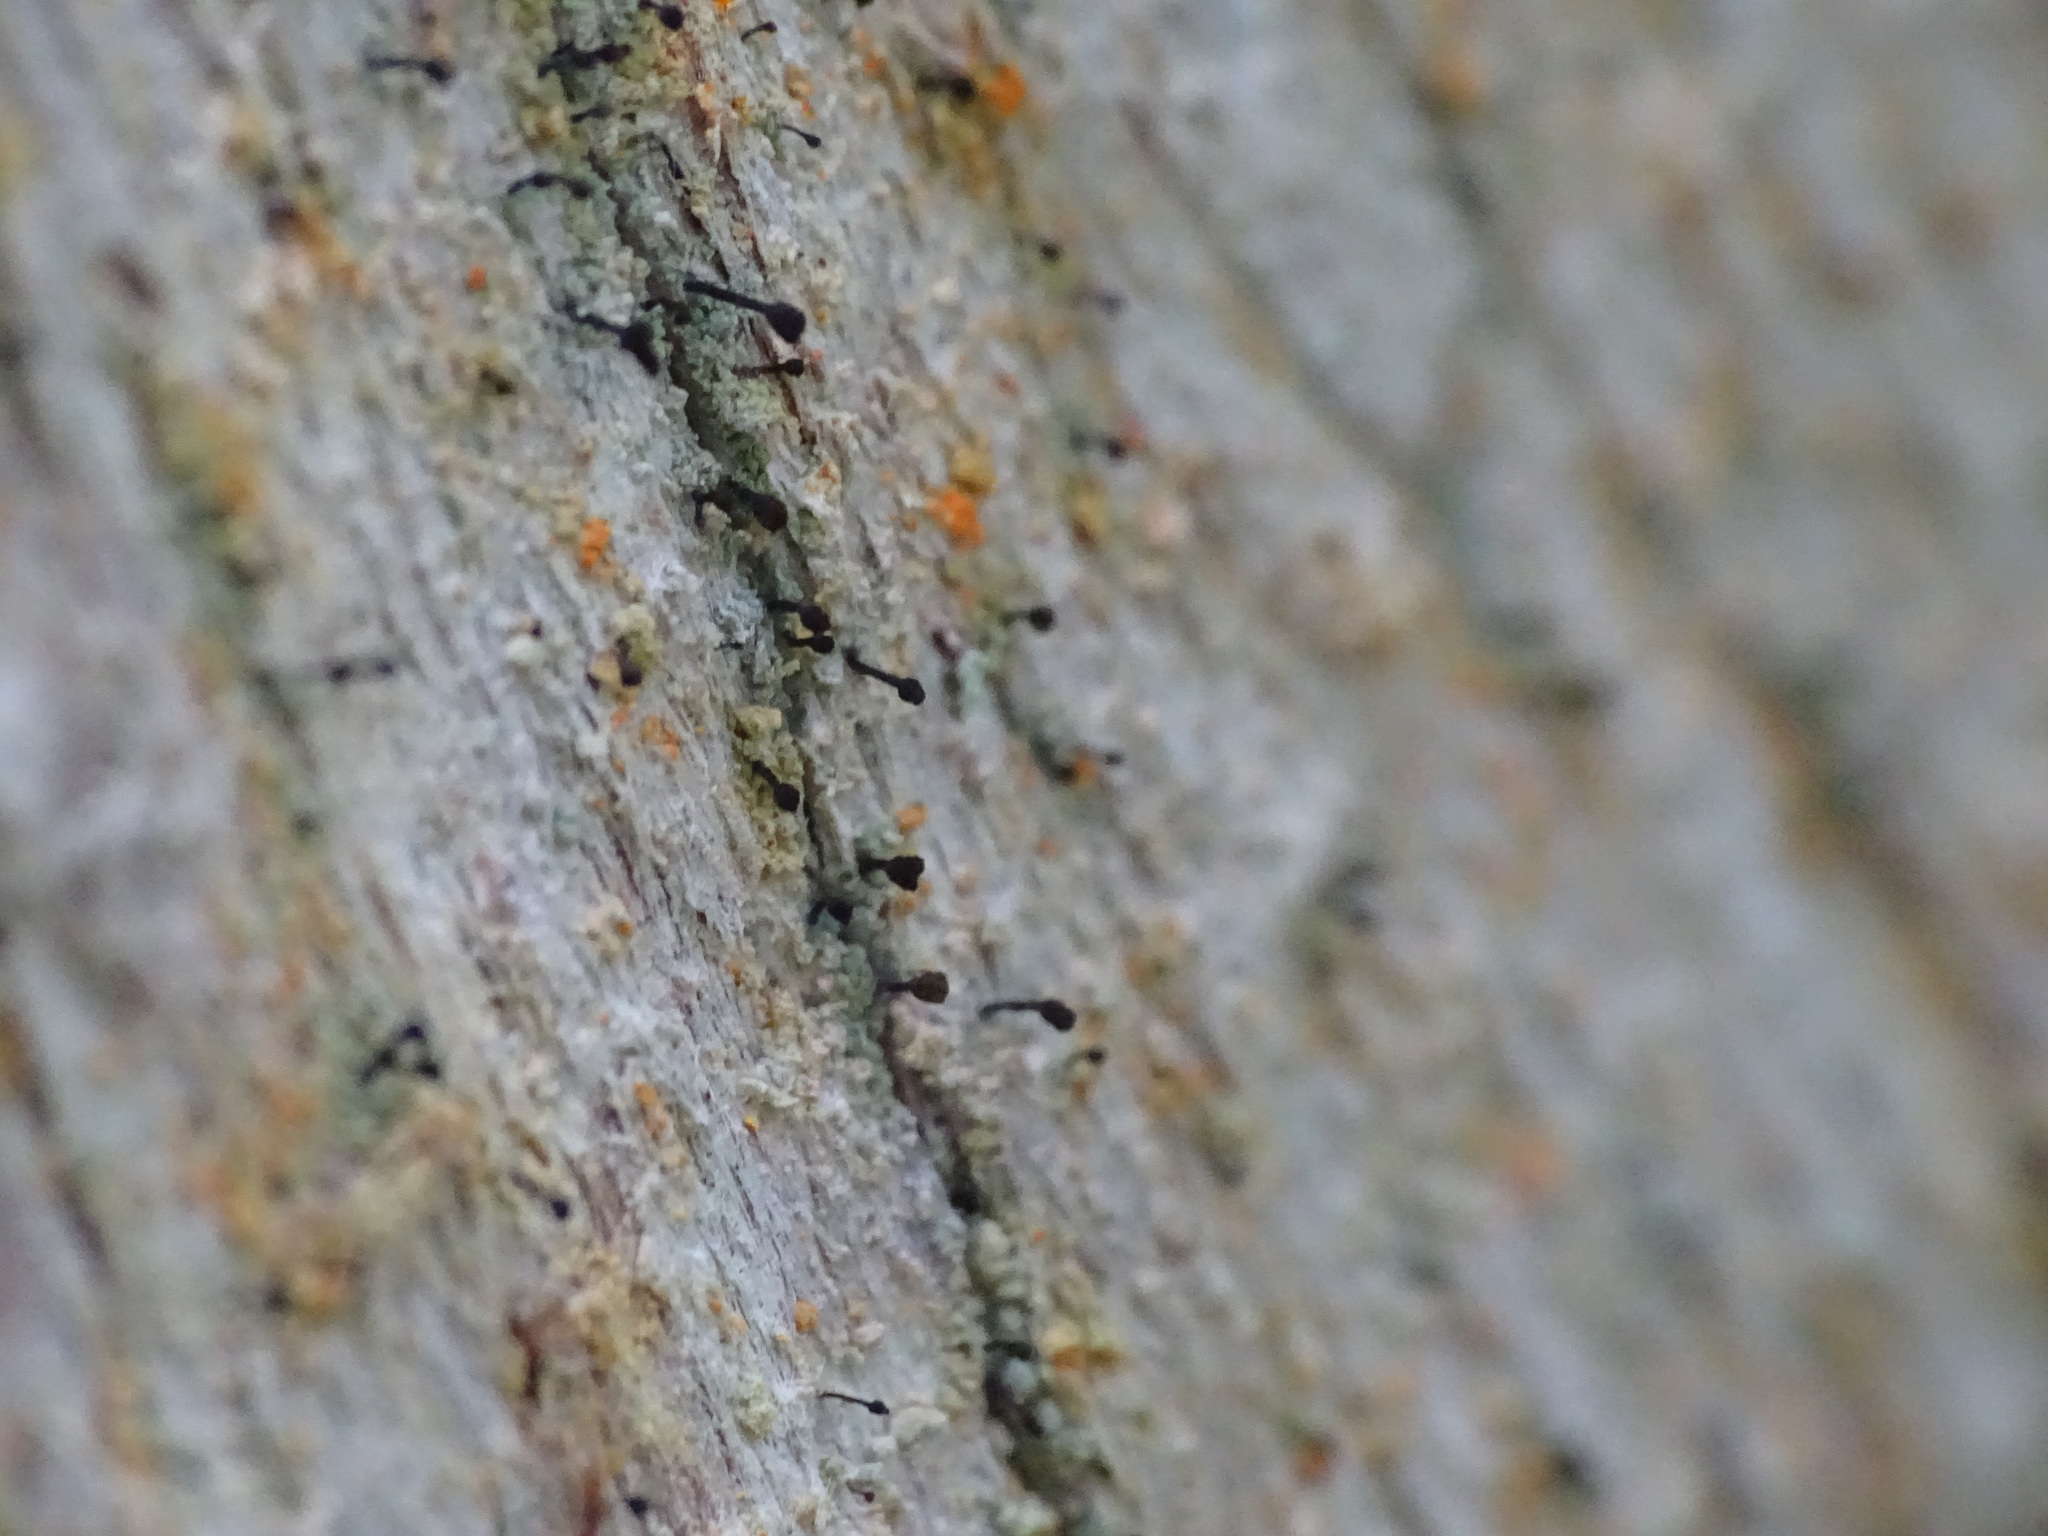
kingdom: Fungi
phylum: Ascomycota
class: Coniocybomycetes
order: Coniocybales
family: Coniocybaceae
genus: Chaenotheca
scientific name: Chaenotheca ferruginea
